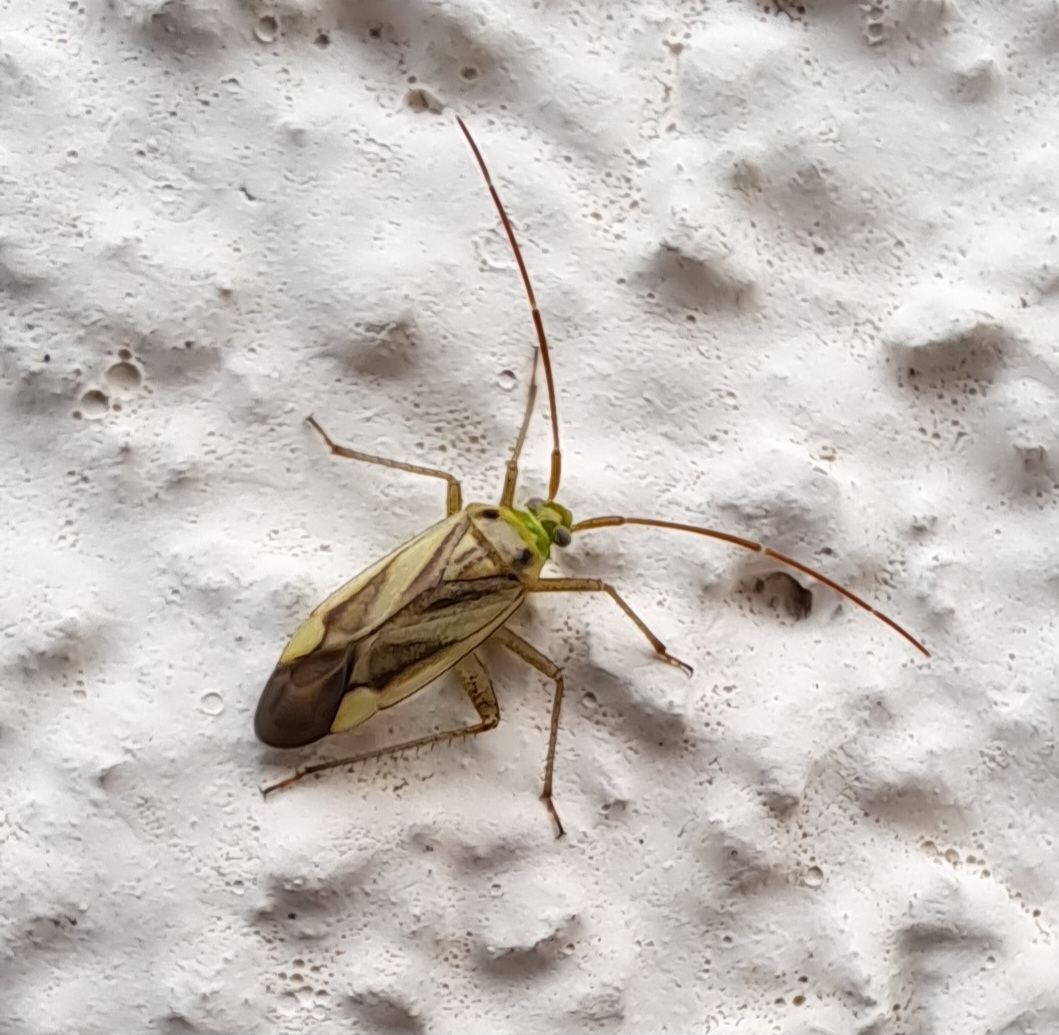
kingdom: Animalia
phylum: Arthropoda
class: Insecta
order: Hemiptera
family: Miridae
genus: Adelphocoris
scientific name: Adelphocoris lineolatus
